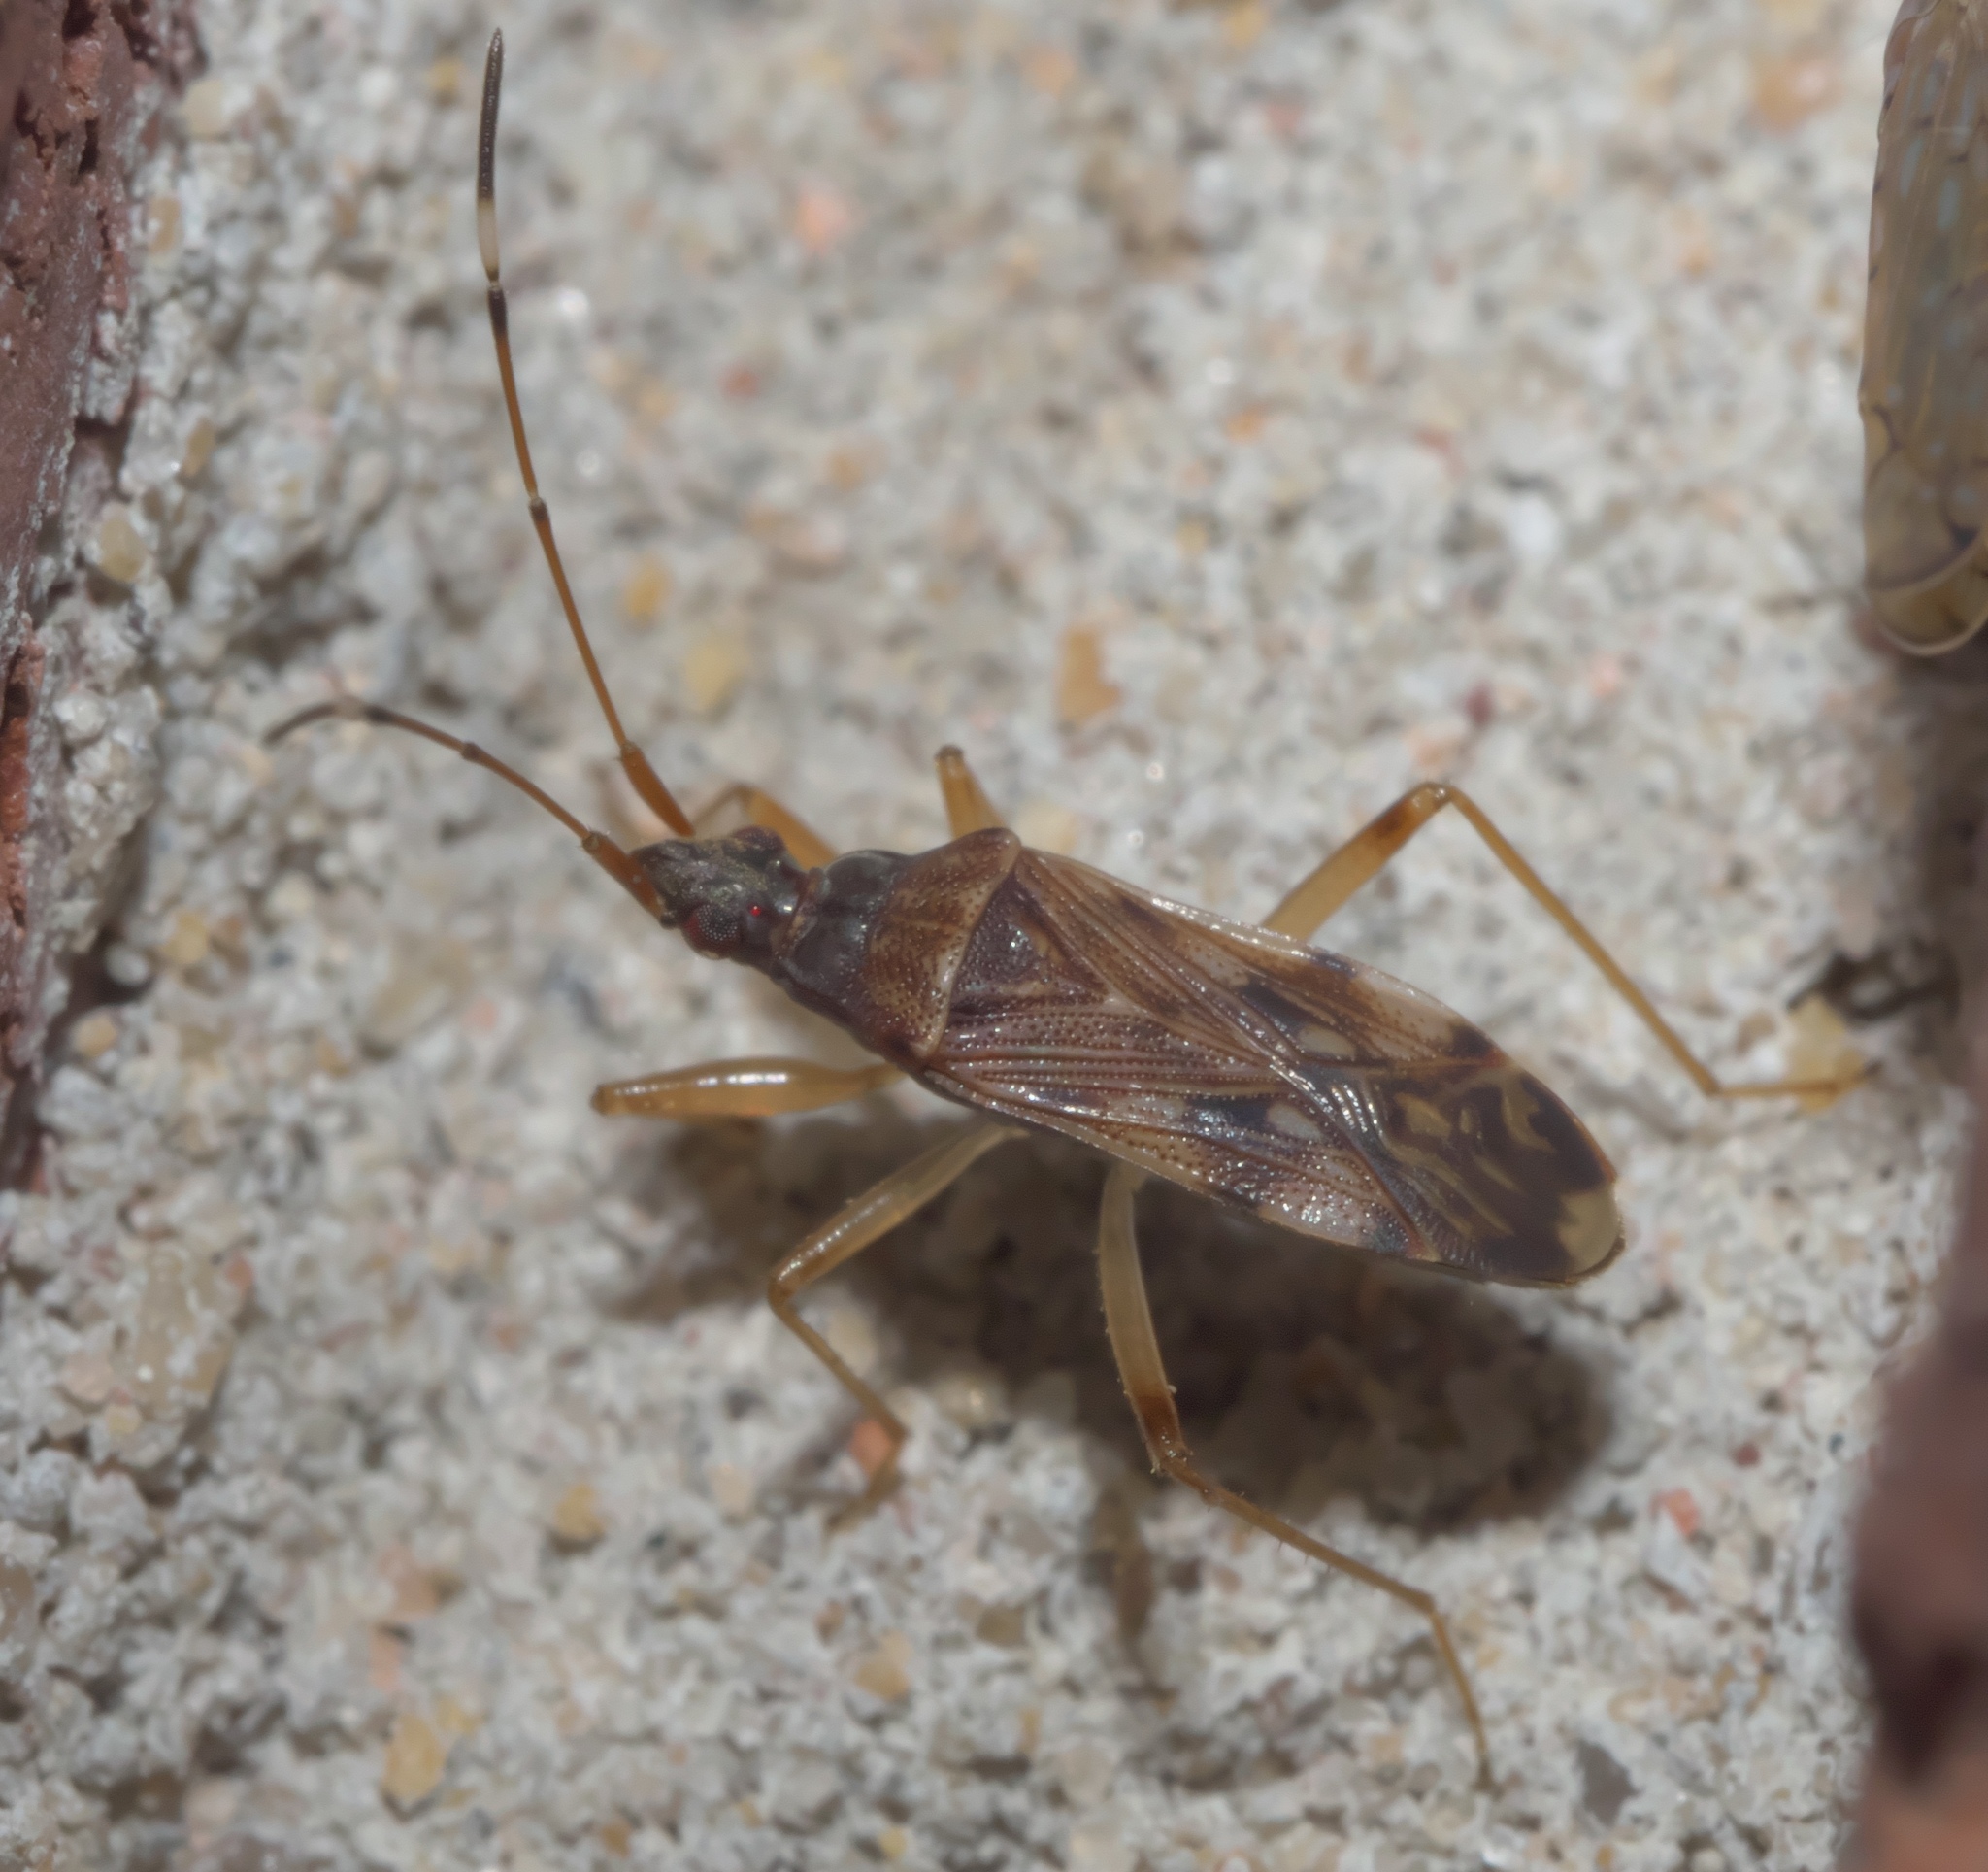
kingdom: Animalia
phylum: Arthropoda
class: Insecta
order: Hemiptera
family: Rhyparochromidae
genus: Ozophora
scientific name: Ozophora picturata
